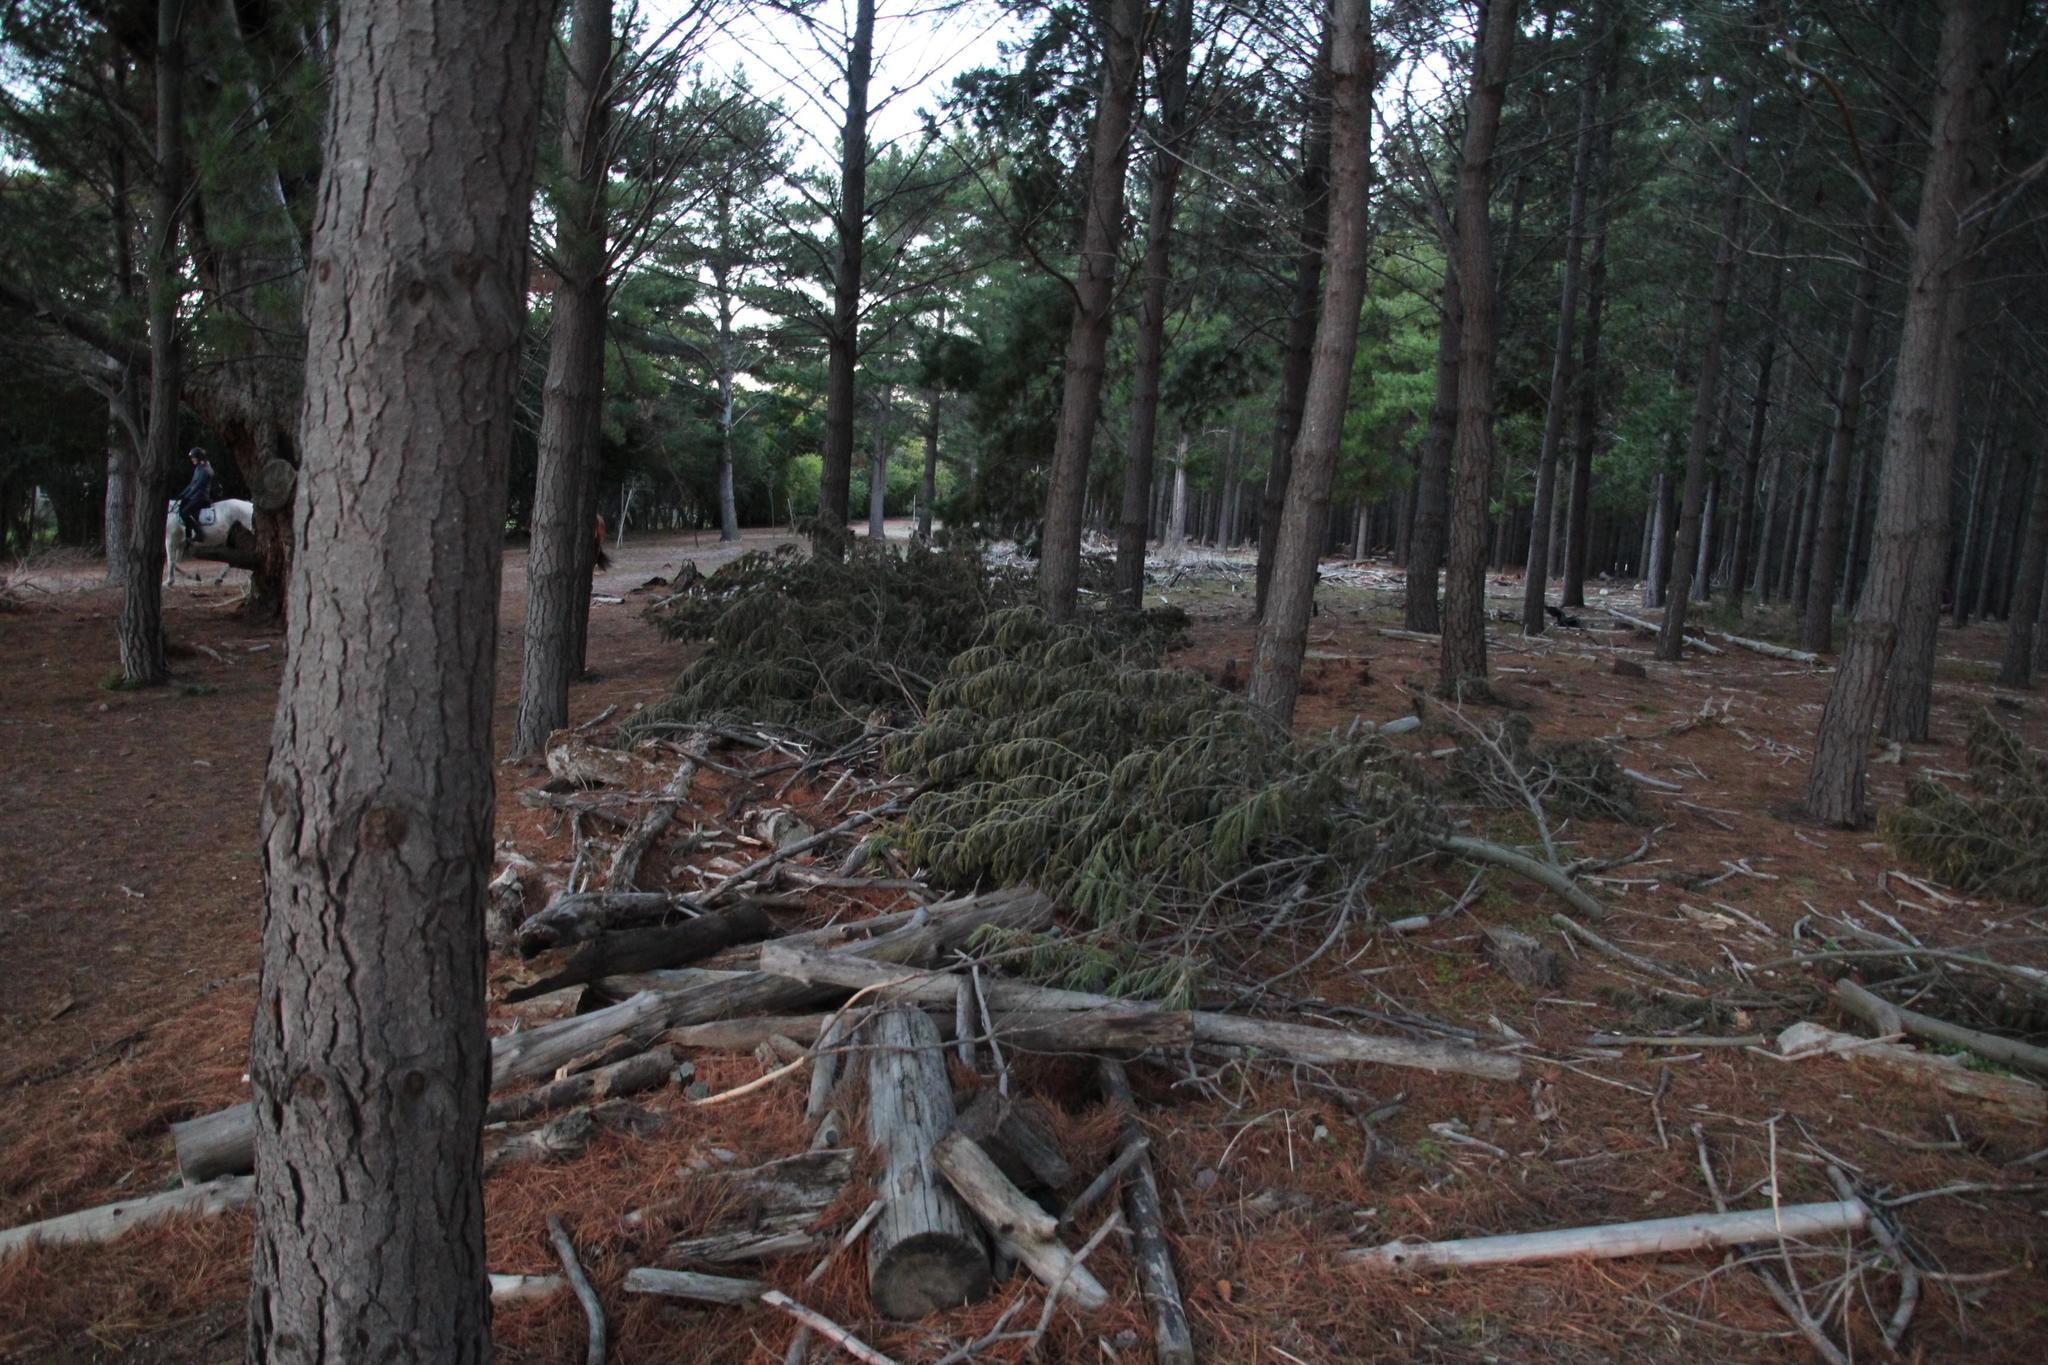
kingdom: Plantae
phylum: Tracheophyta
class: Magnoliopsida
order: Fabales
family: Fabaceae
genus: Acacia
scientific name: Acacia mearnsii
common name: Black wattle
